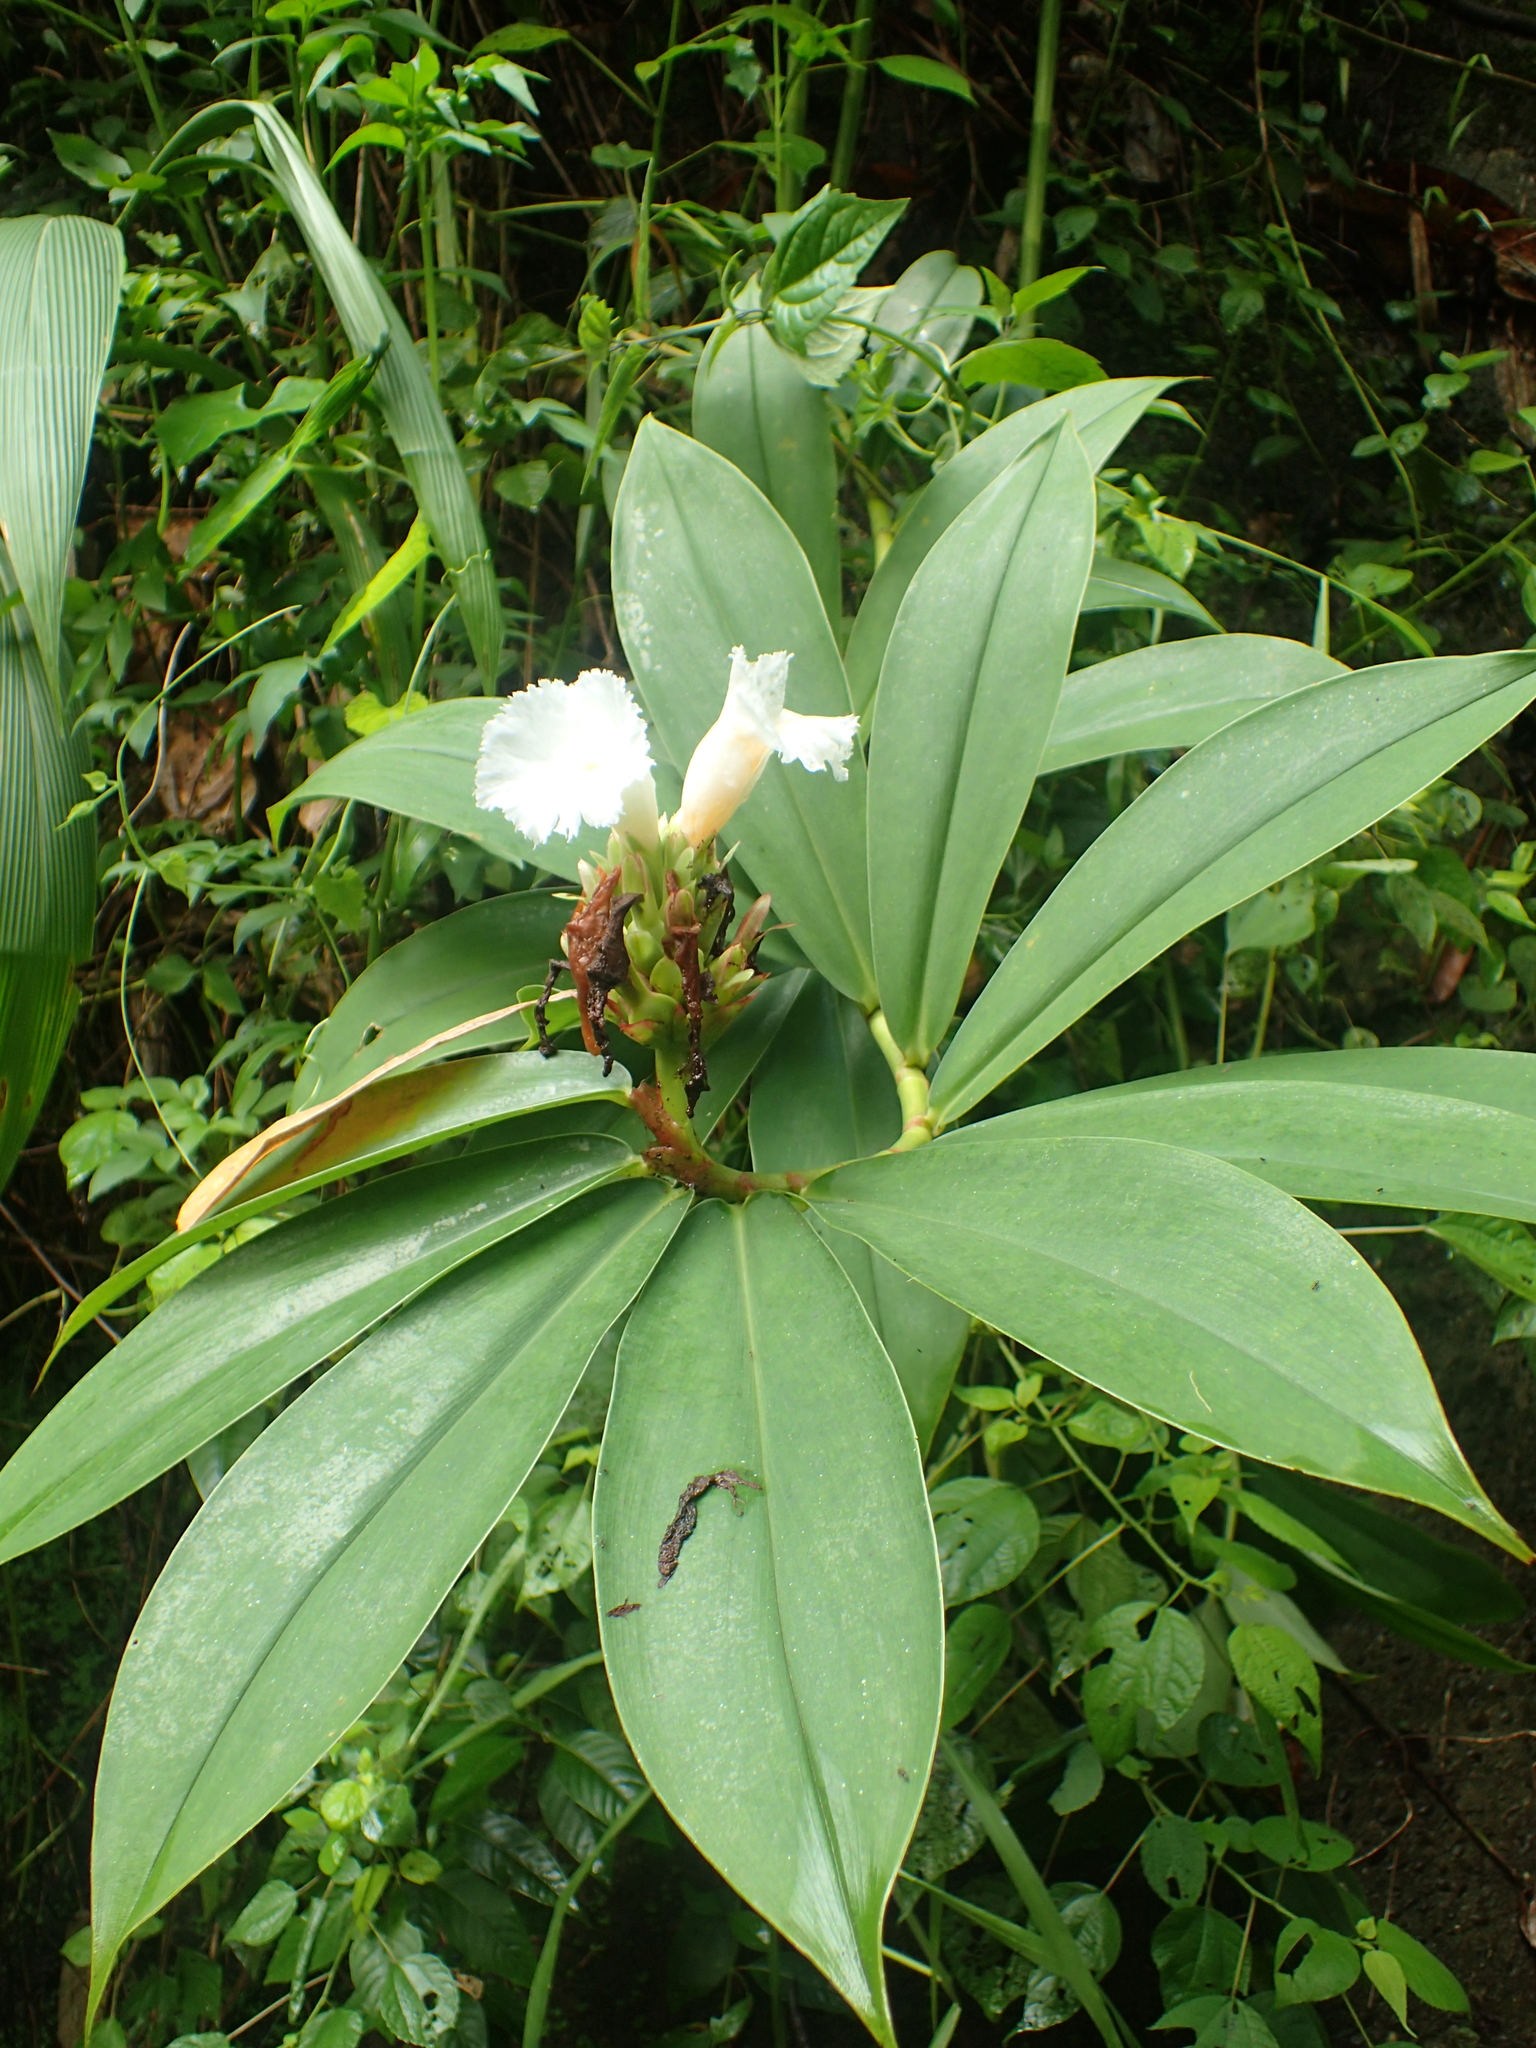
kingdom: Plantae
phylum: Tracheophyta
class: Liliopsida
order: Zingiberales
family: Costaceae
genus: Hellenia
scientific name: Hellenia speciosa
